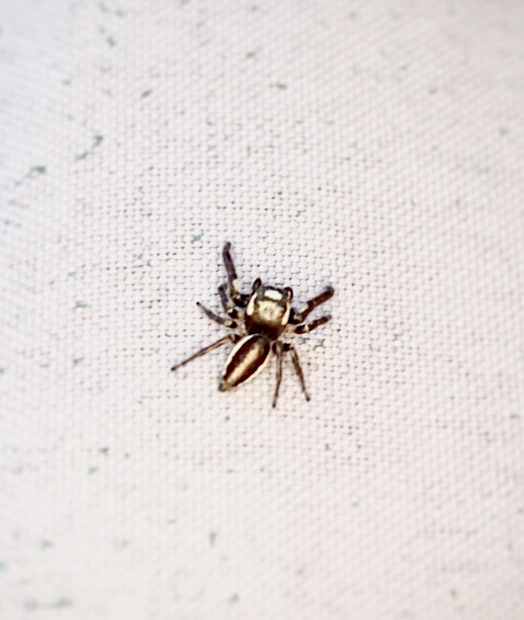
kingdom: Animalia
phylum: Arthropoda
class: Arachnida
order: Araneae
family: Salticidae
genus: Eris
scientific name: Eris militaris
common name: Bronze jumper
